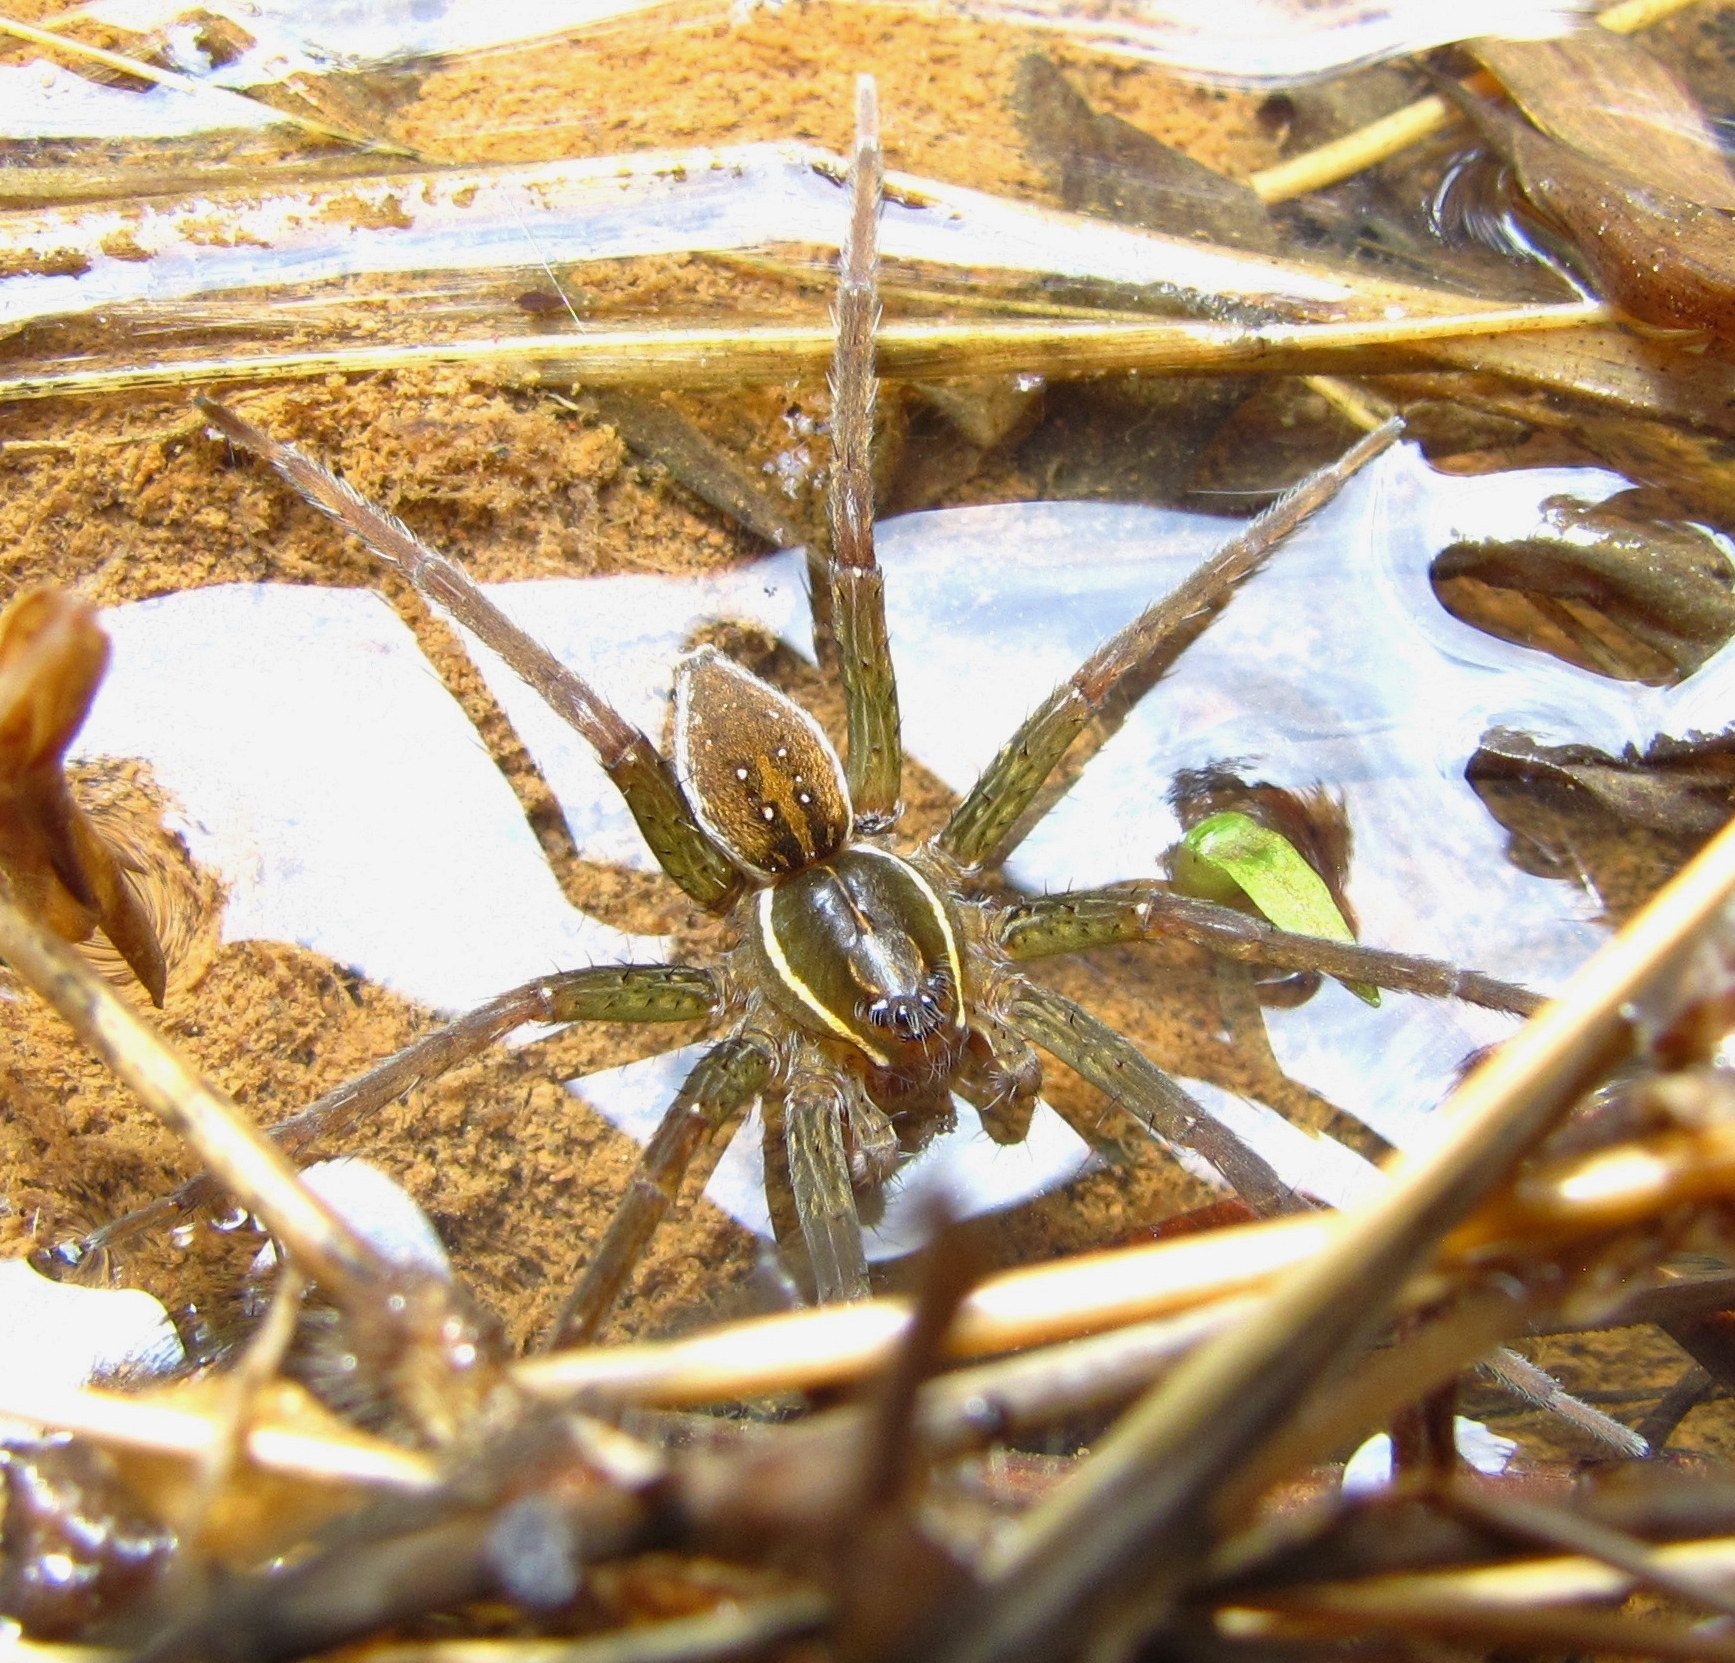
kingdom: Animalia
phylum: Arthropoda
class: Arachnida
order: Araneae
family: Pisauridae
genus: Dolomedes
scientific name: Dolomedes triton
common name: Six-spotted fishing spider
